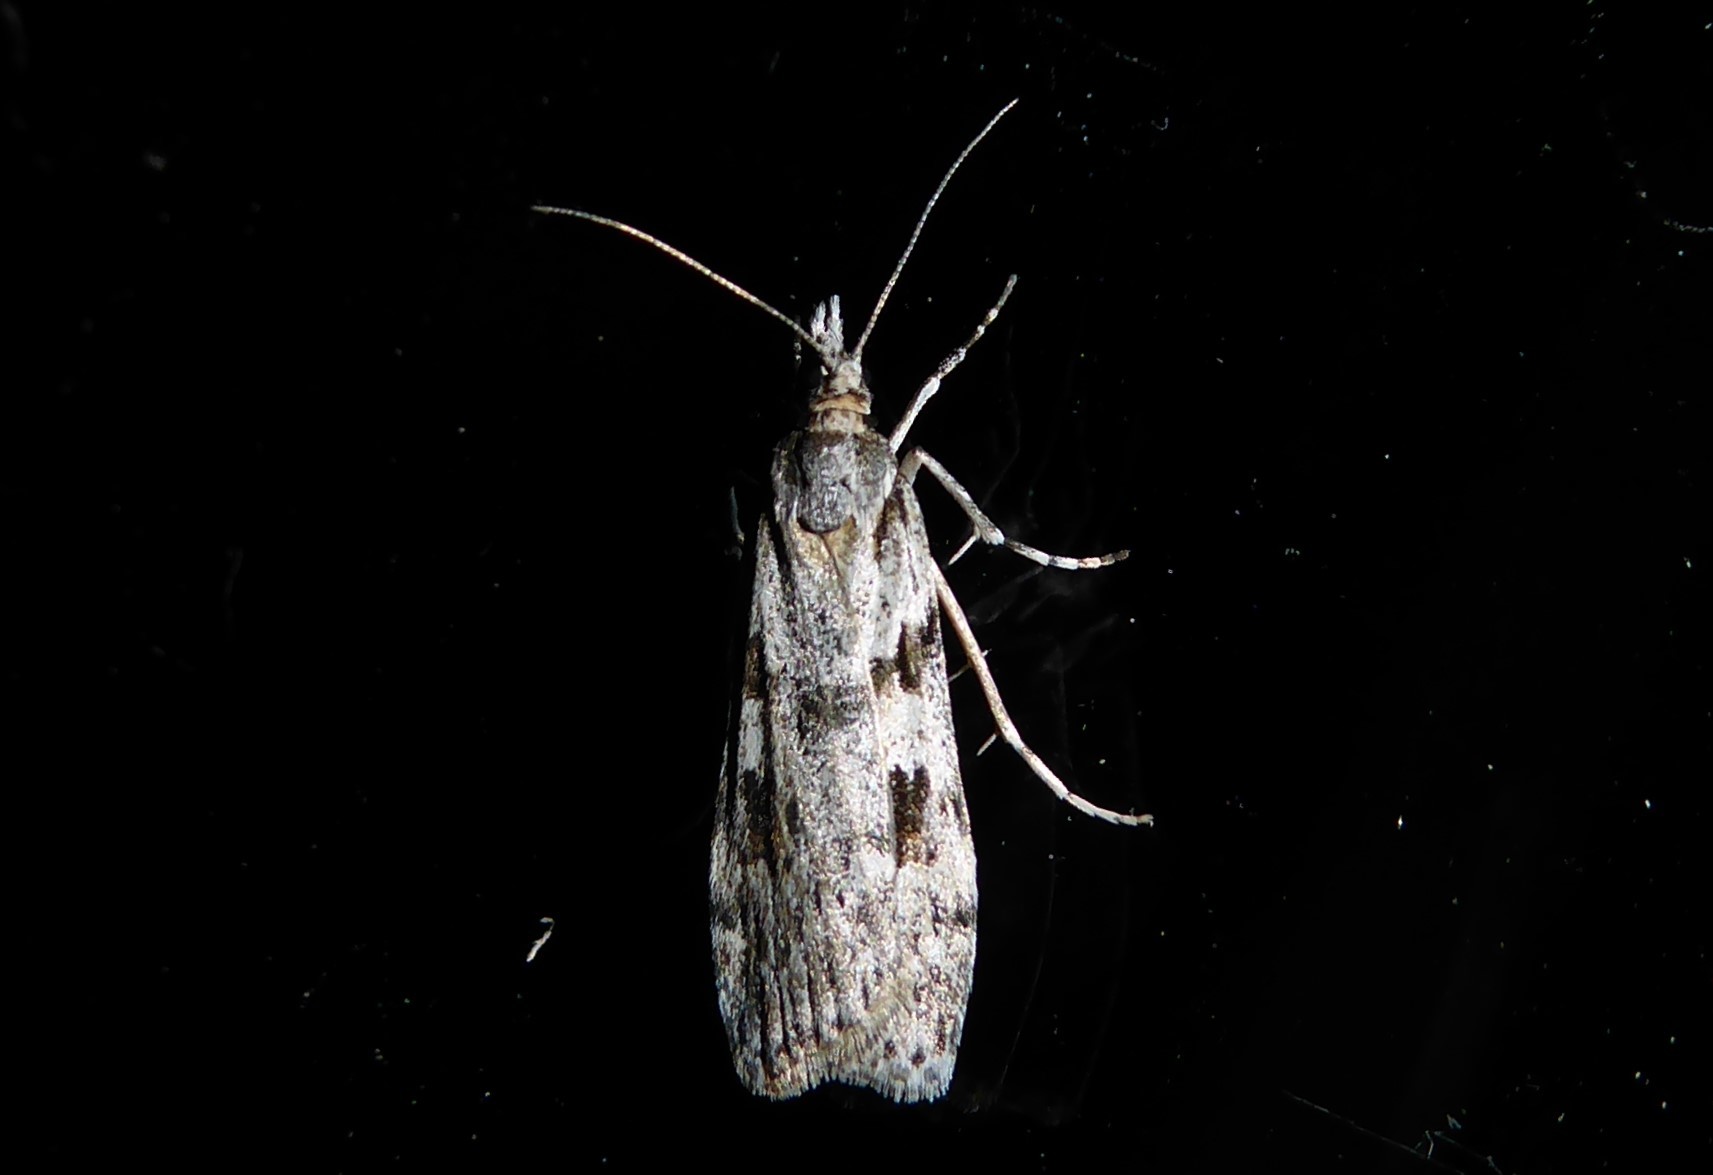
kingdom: Animalia
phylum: Arthropoda
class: Insecta
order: Lepidoptera
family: Crambidae
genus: Scoparia
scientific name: Scoparia halopis
